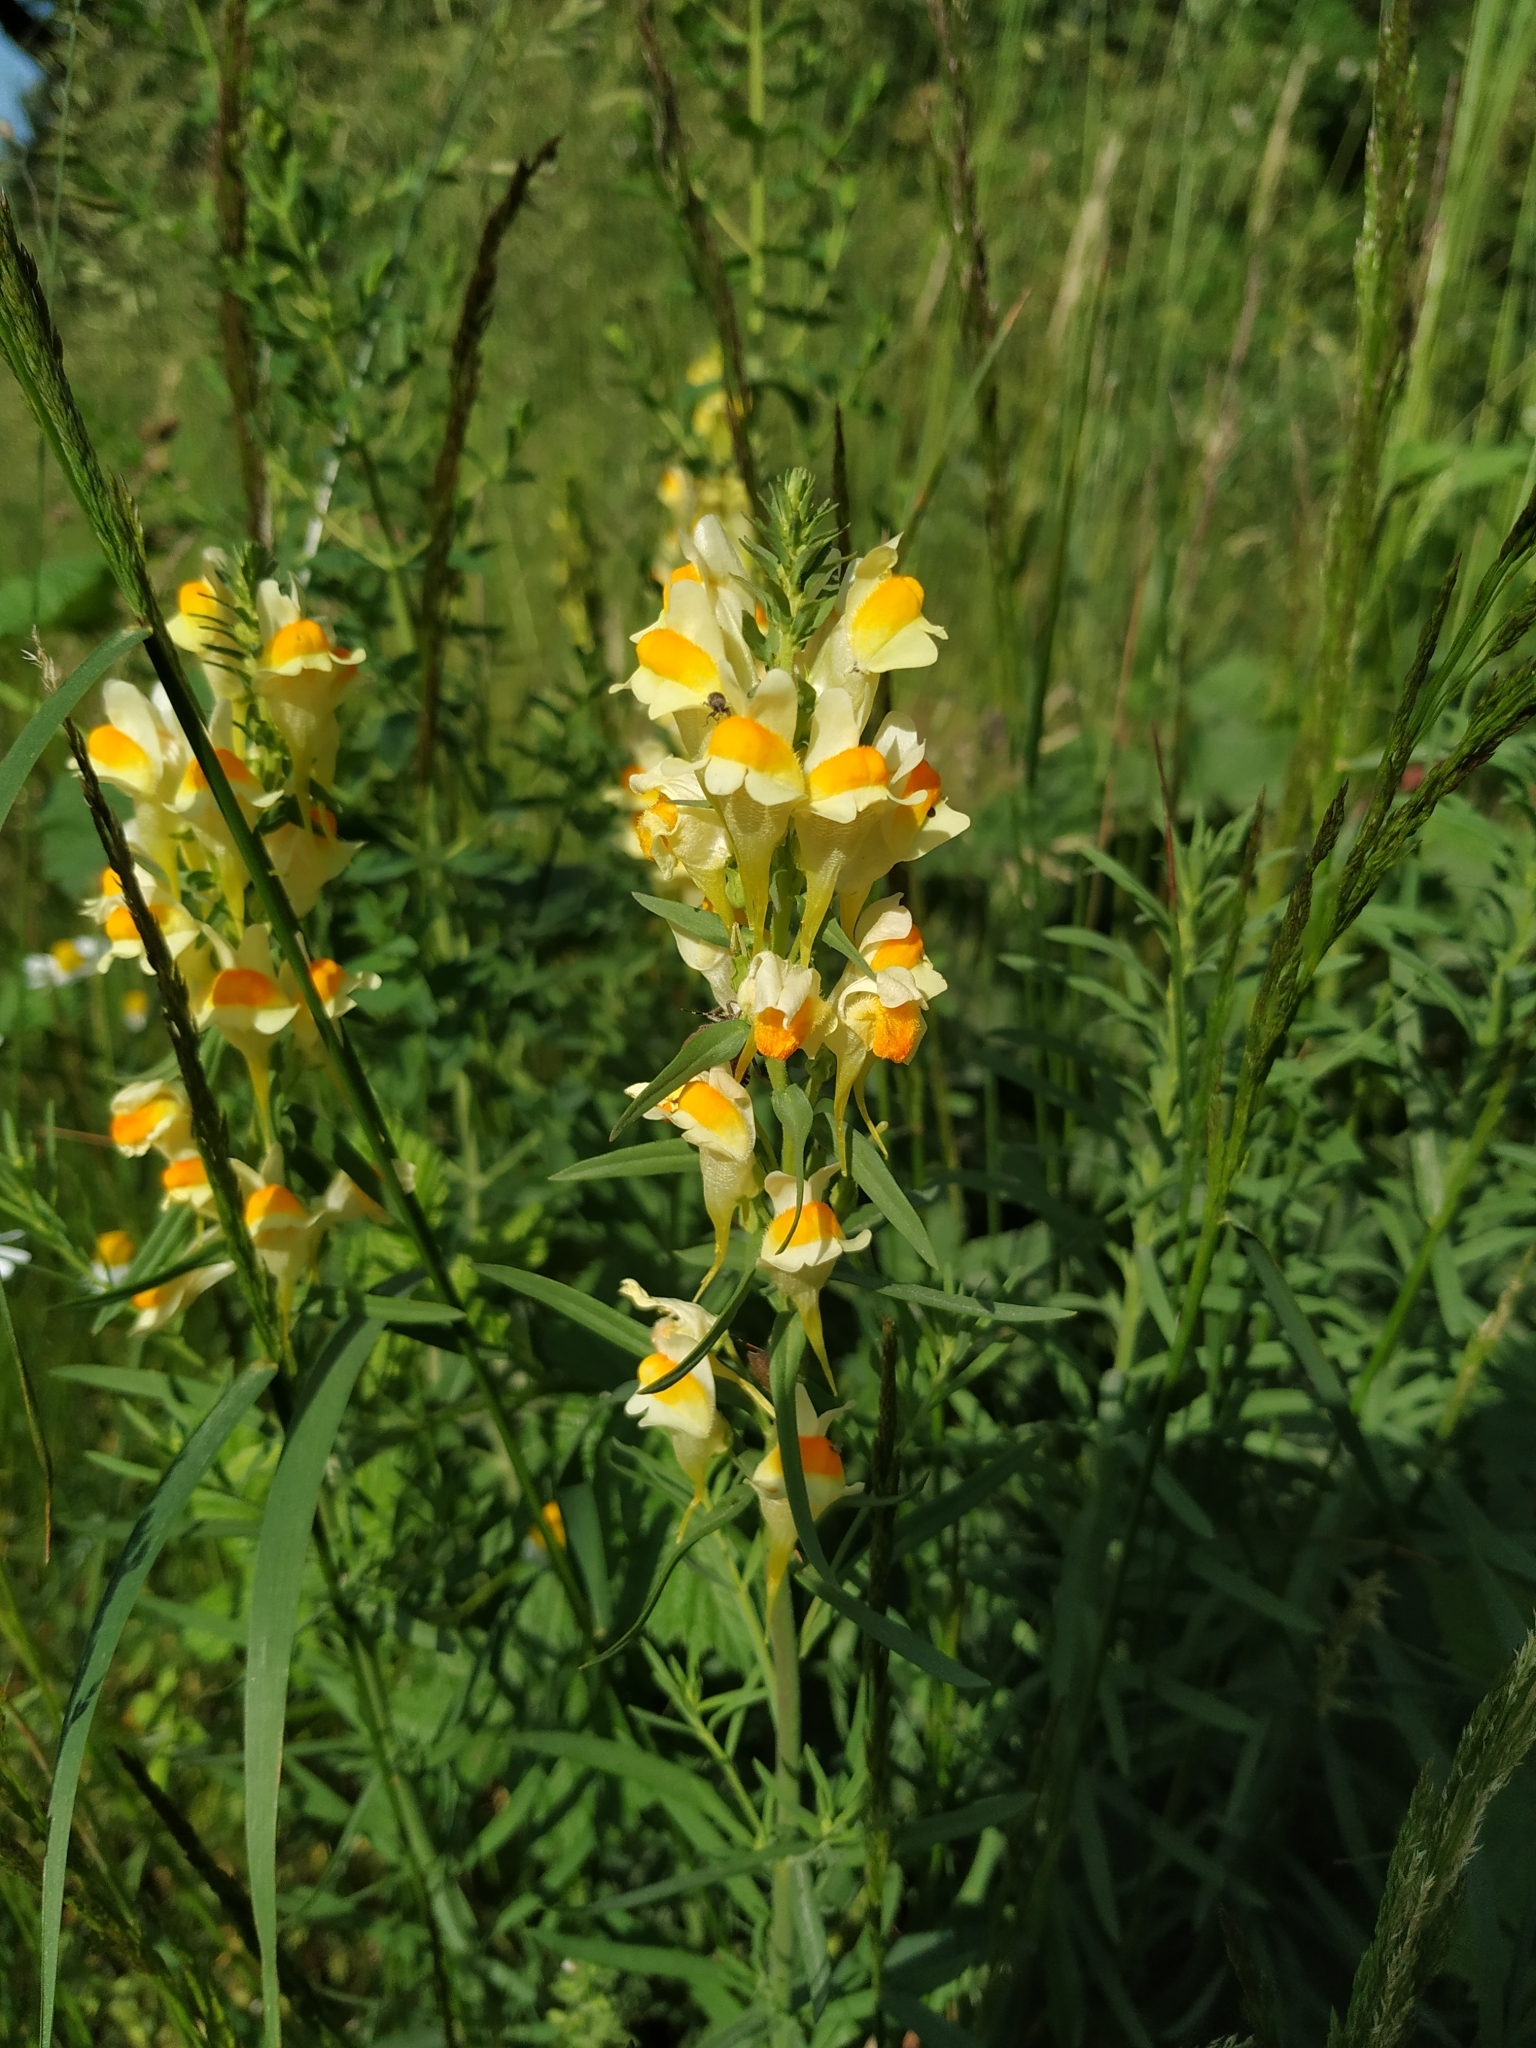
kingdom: Plantae
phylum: Tracheophyta
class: Magnoliopsida
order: Lamiales
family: Plantaginaceae
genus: Linaria
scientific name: Linaria vulgaris
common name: Butter and eggs
